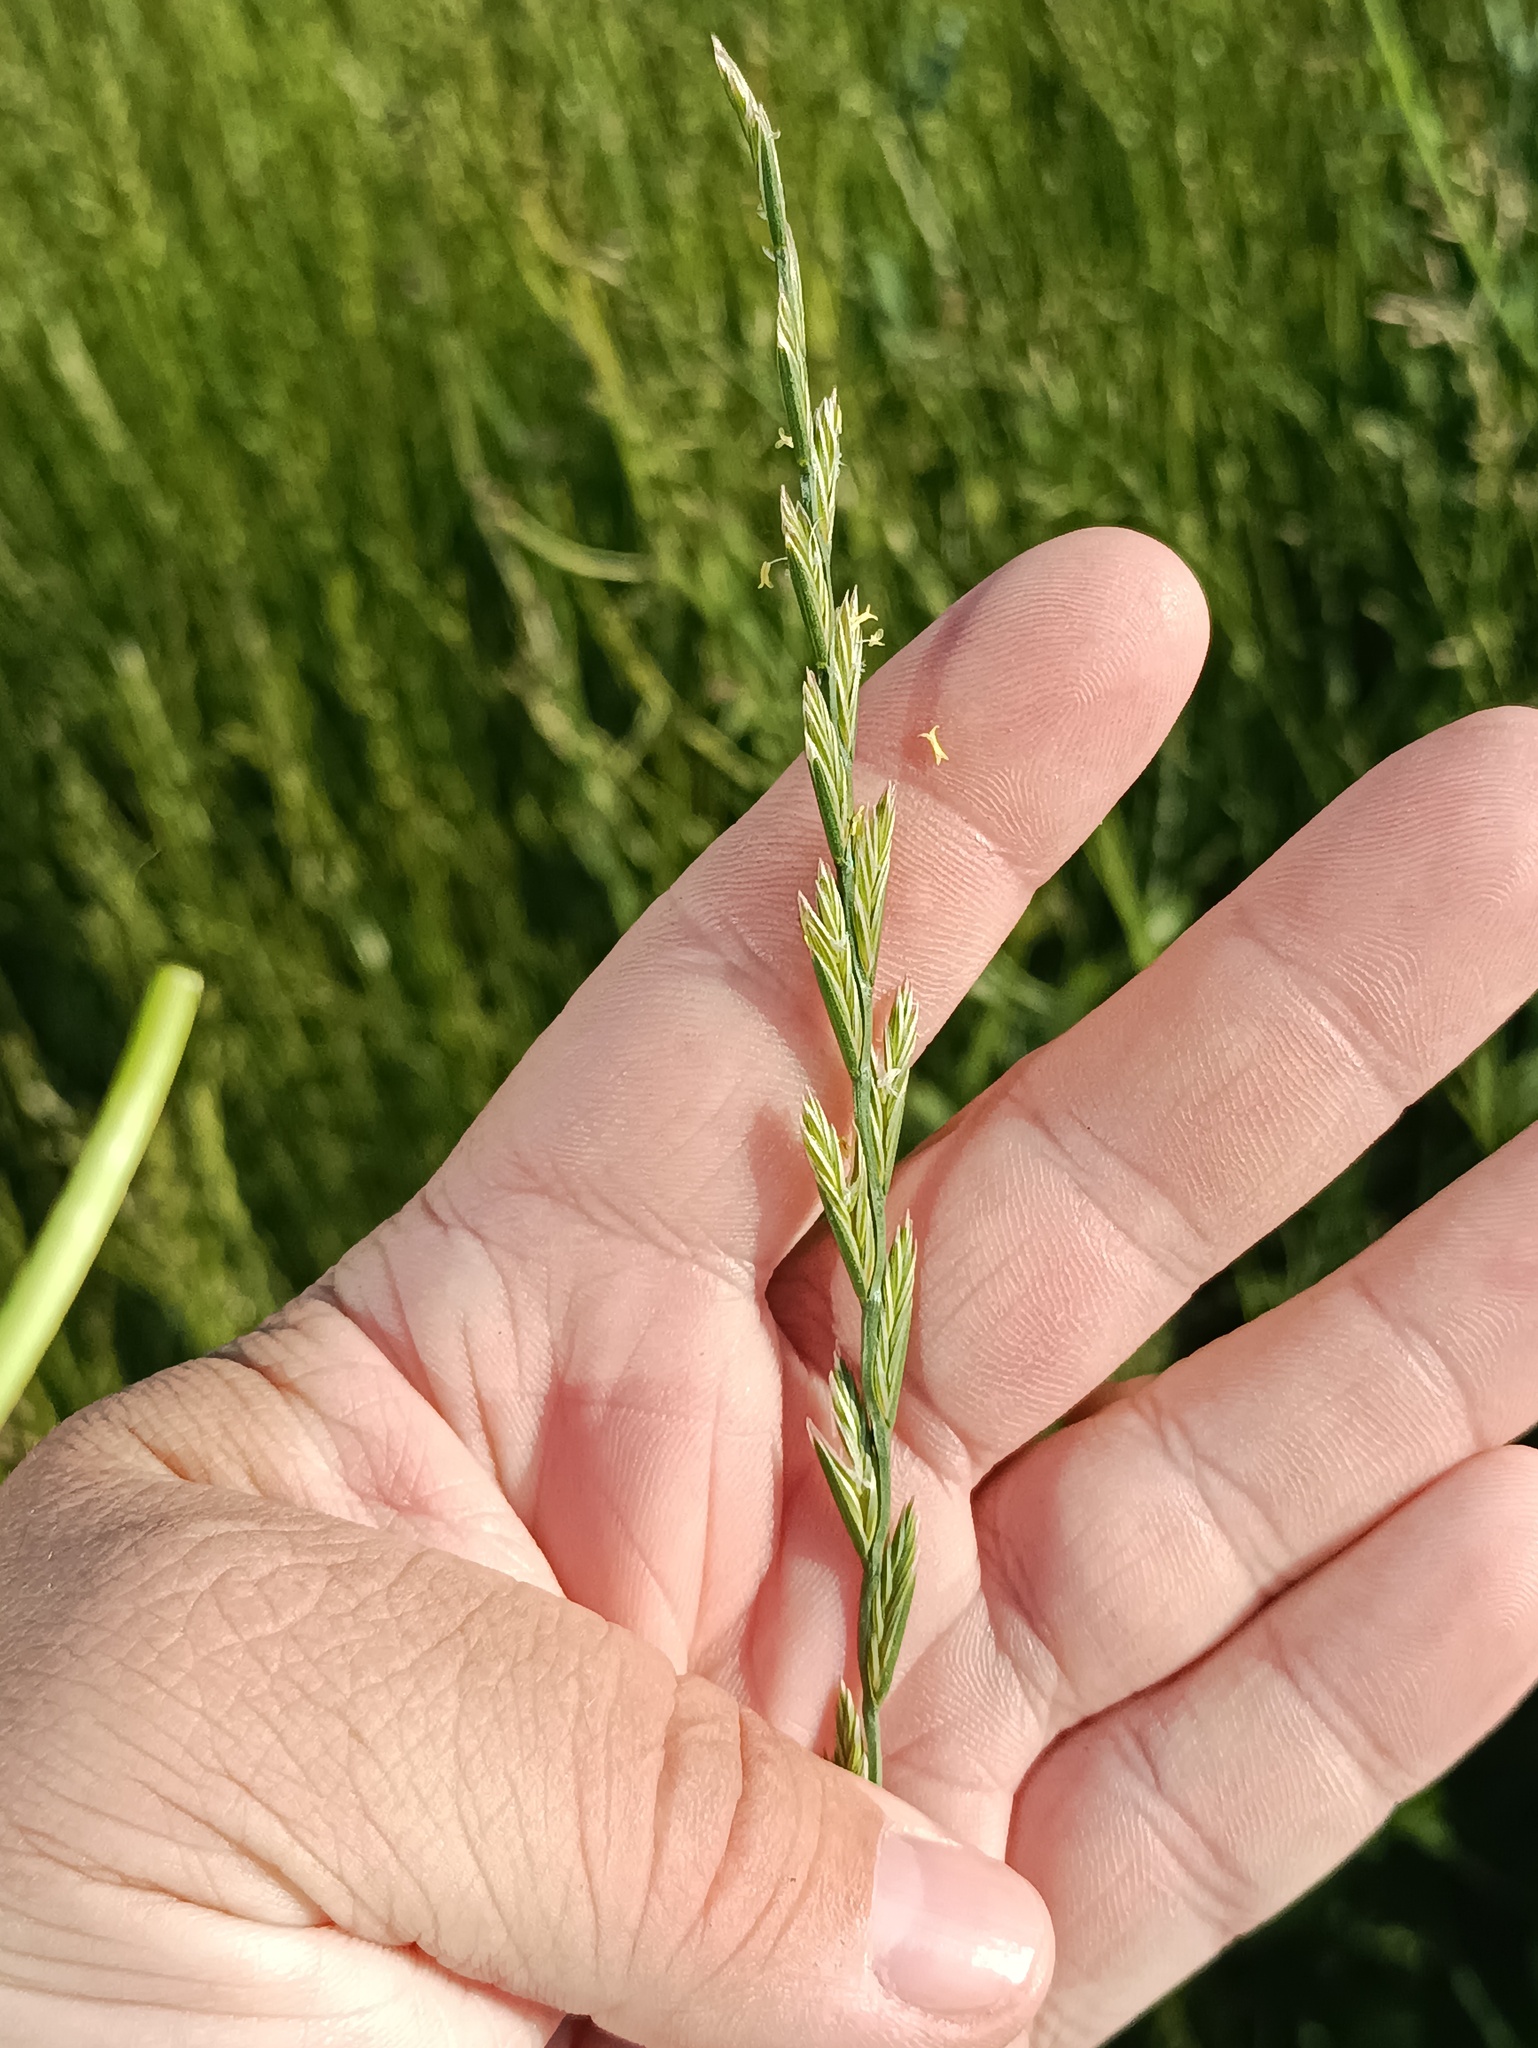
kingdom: Plantae
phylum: Tracheophyta
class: Liliopsida
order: Poales
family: Poaceae
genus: Lolium
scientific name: Lolium perenne
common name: Perennial ryegrass
